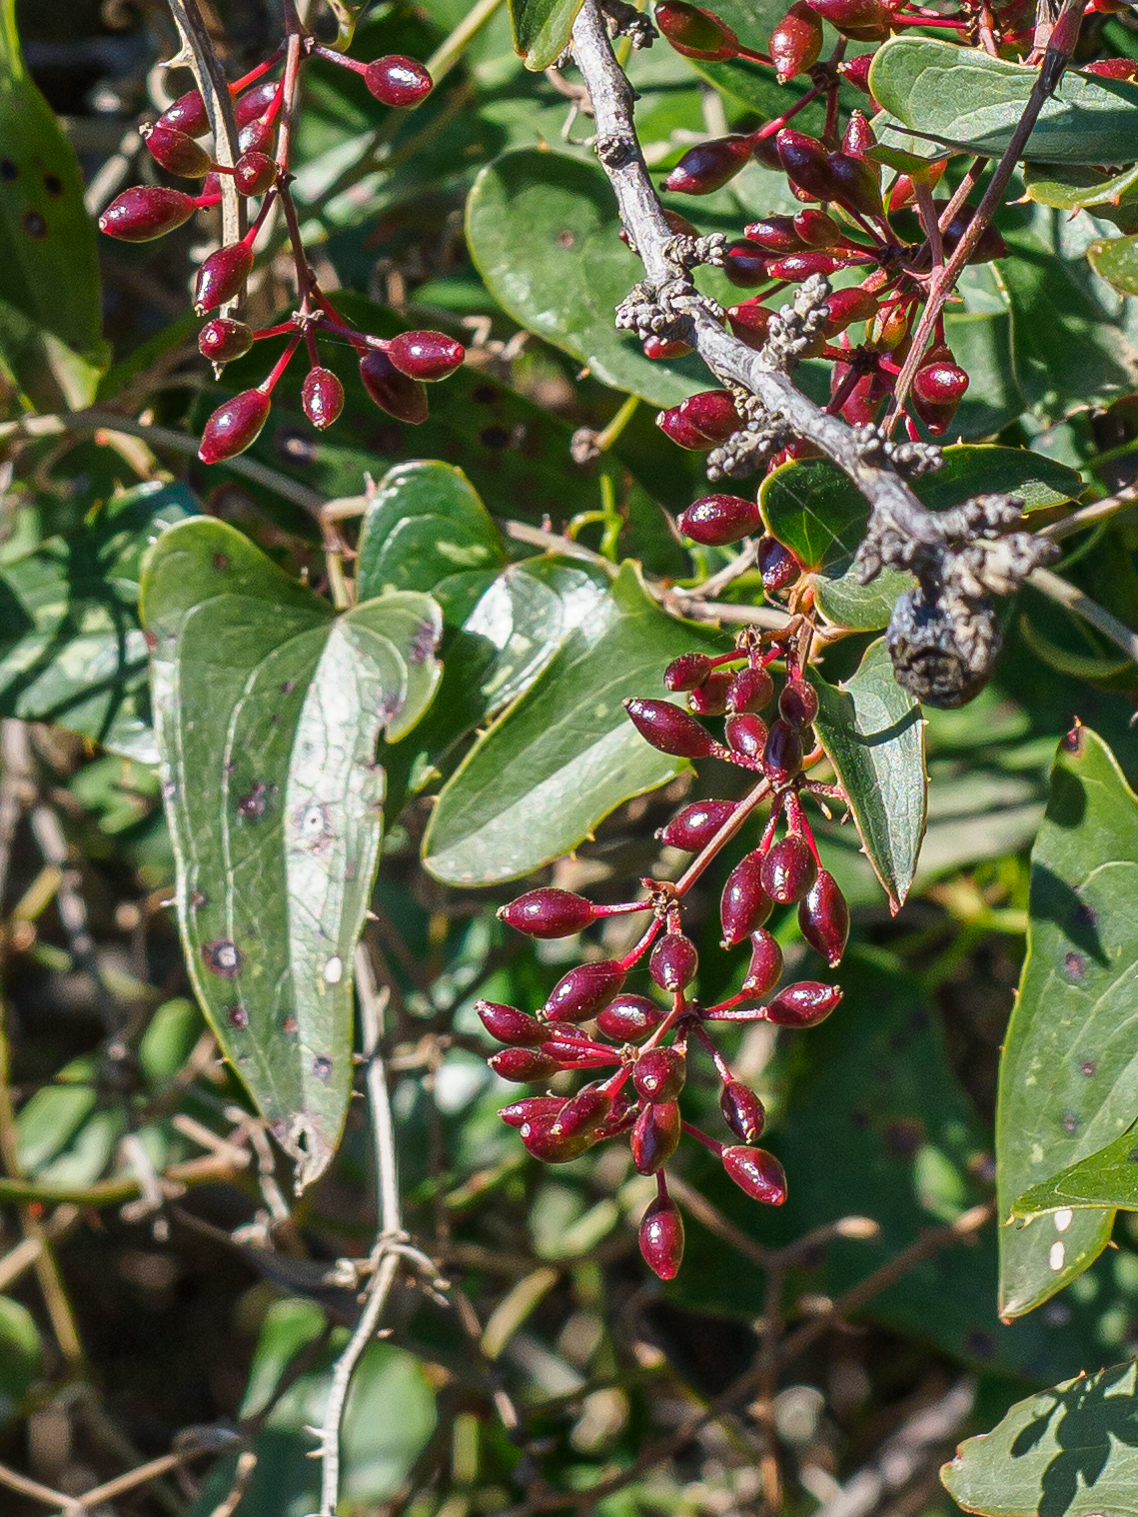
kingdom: Plantae
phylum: Tracheophyta
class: Liliopsida
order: Liliales
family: Smilacaceae
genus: Smilax
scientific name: Smilax aspera
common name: Common smilax
